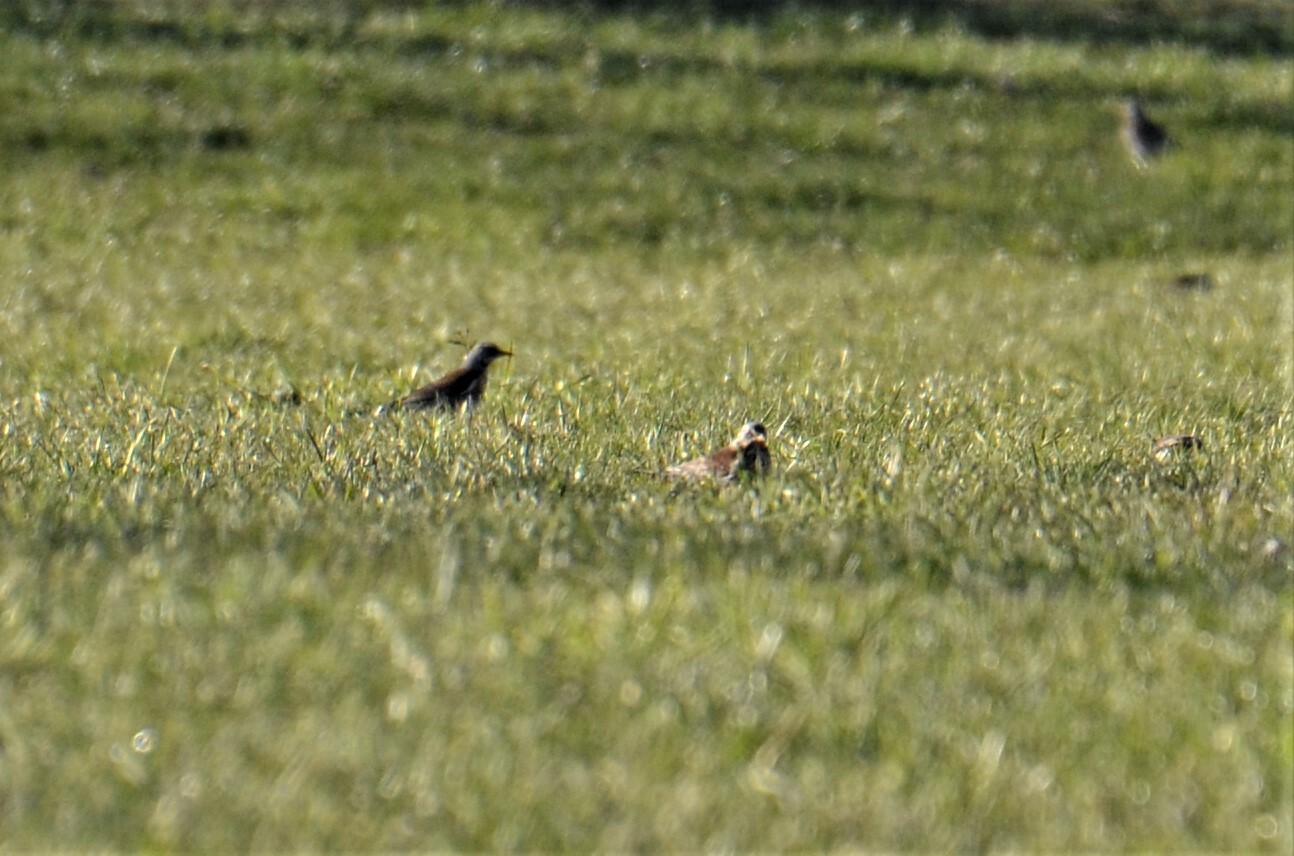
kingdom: Animalia
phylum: Chordata
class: Aves
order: Passeriformes
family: Turdidae
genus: Turdus
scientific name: Turdus iliacus
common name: Redwing
